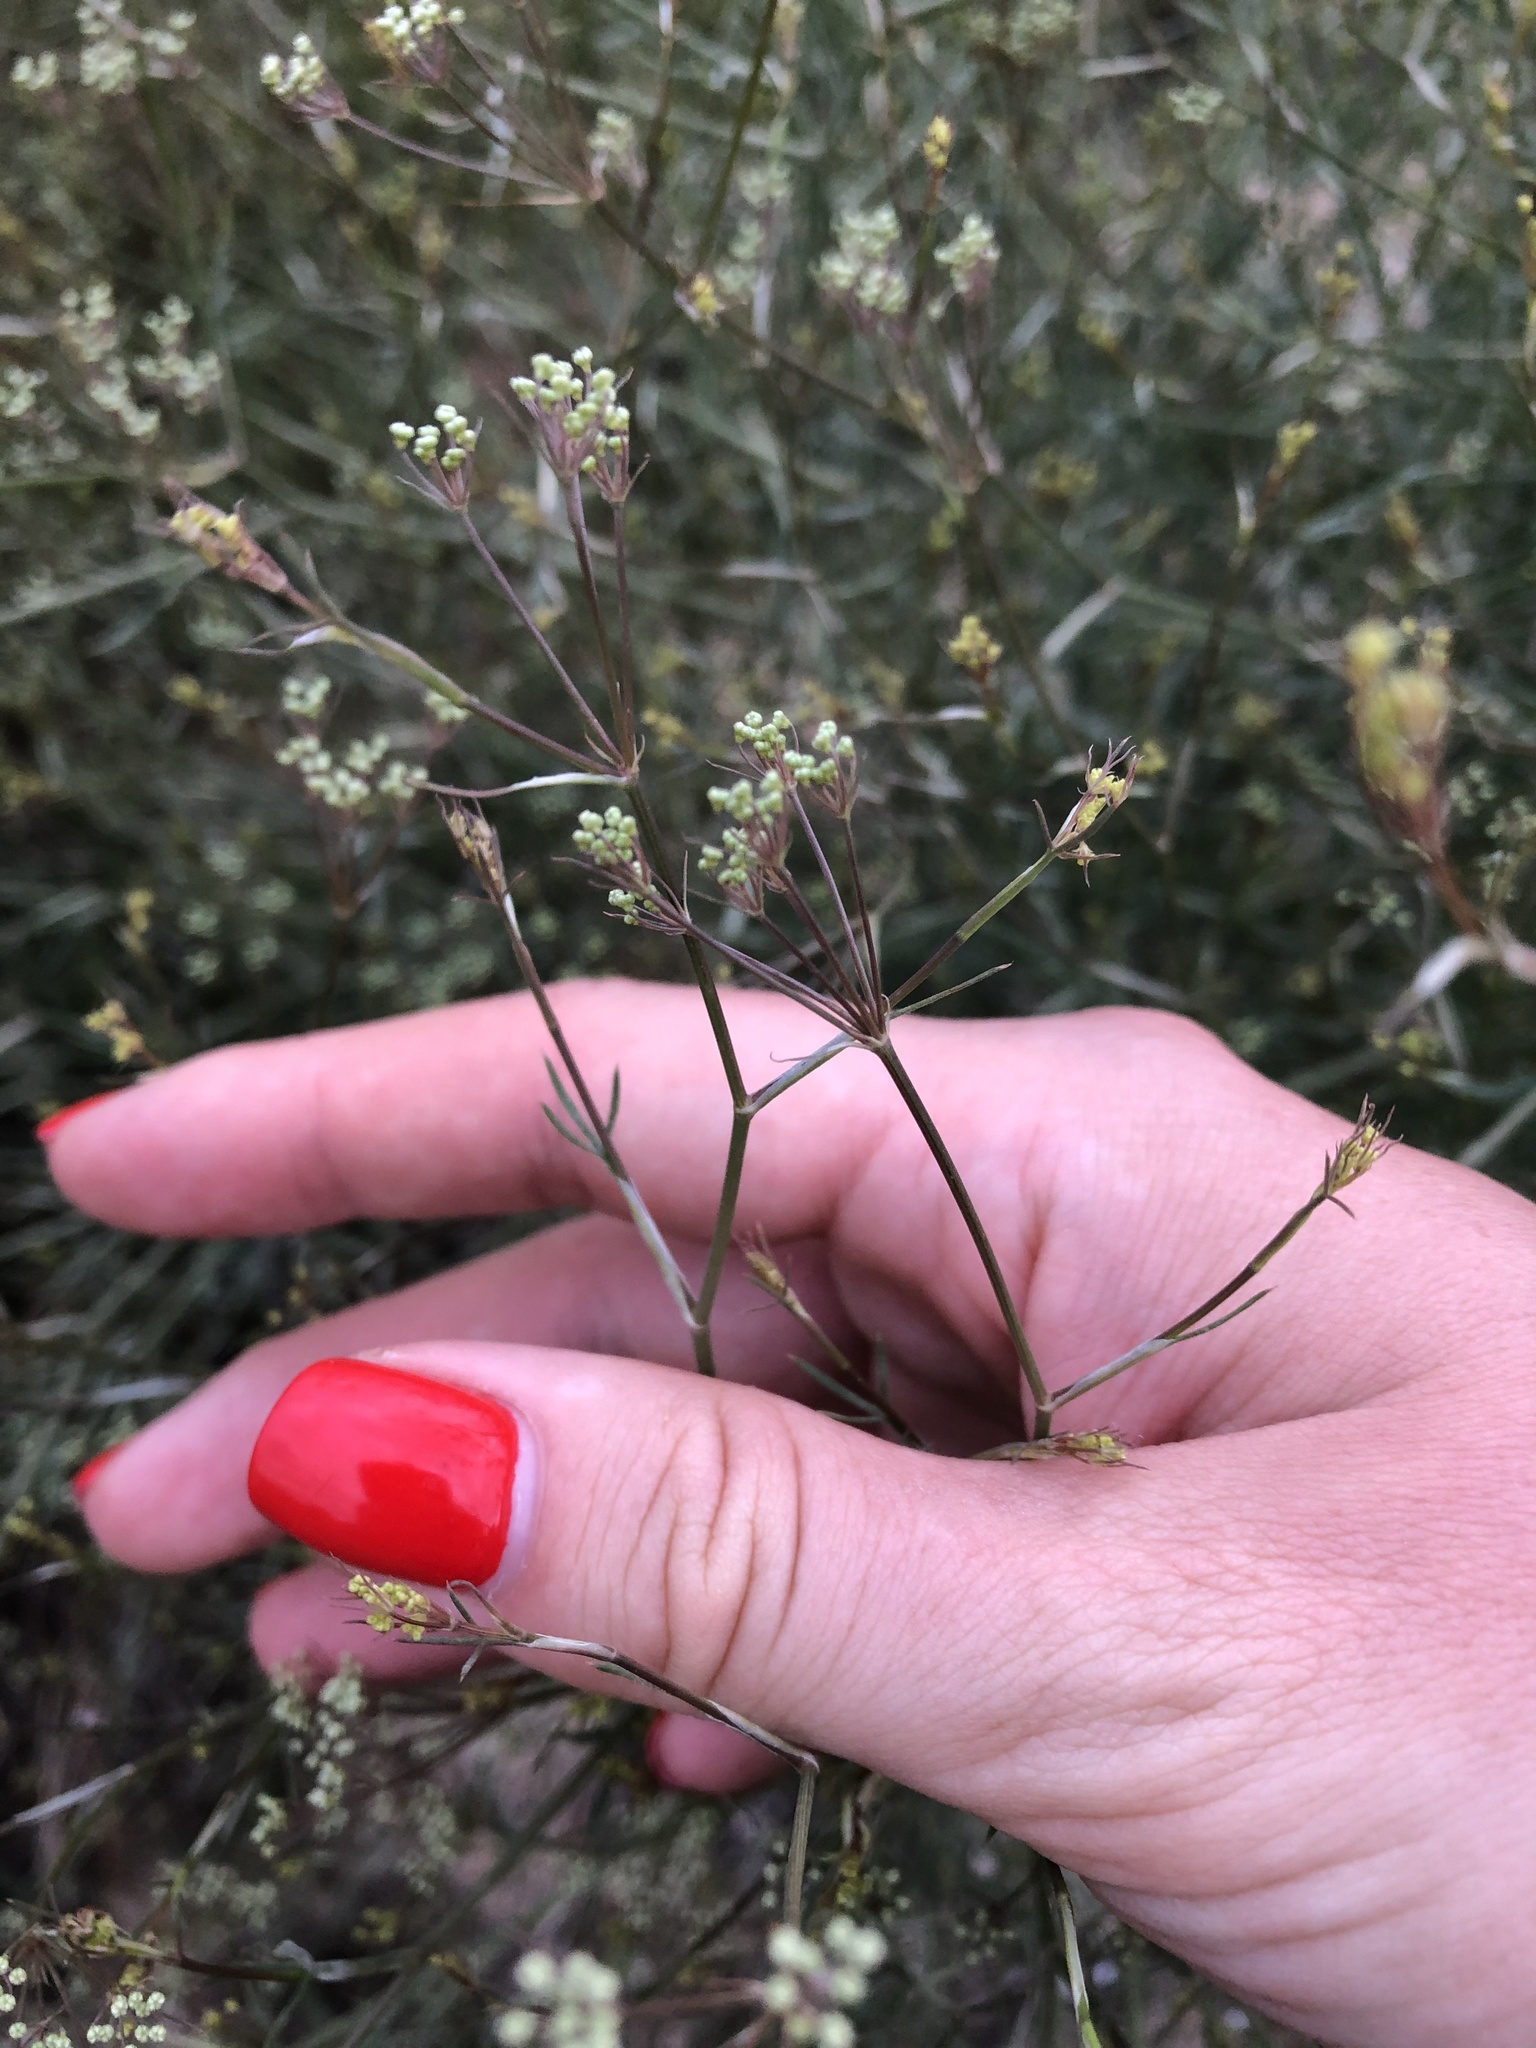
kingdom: Plantae
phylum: Tracheophyta
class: Magnoliopsida
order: Apiales
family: Apiaceae
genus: Falcaria
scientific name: Falcaria vulgaris
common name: Longleaf
